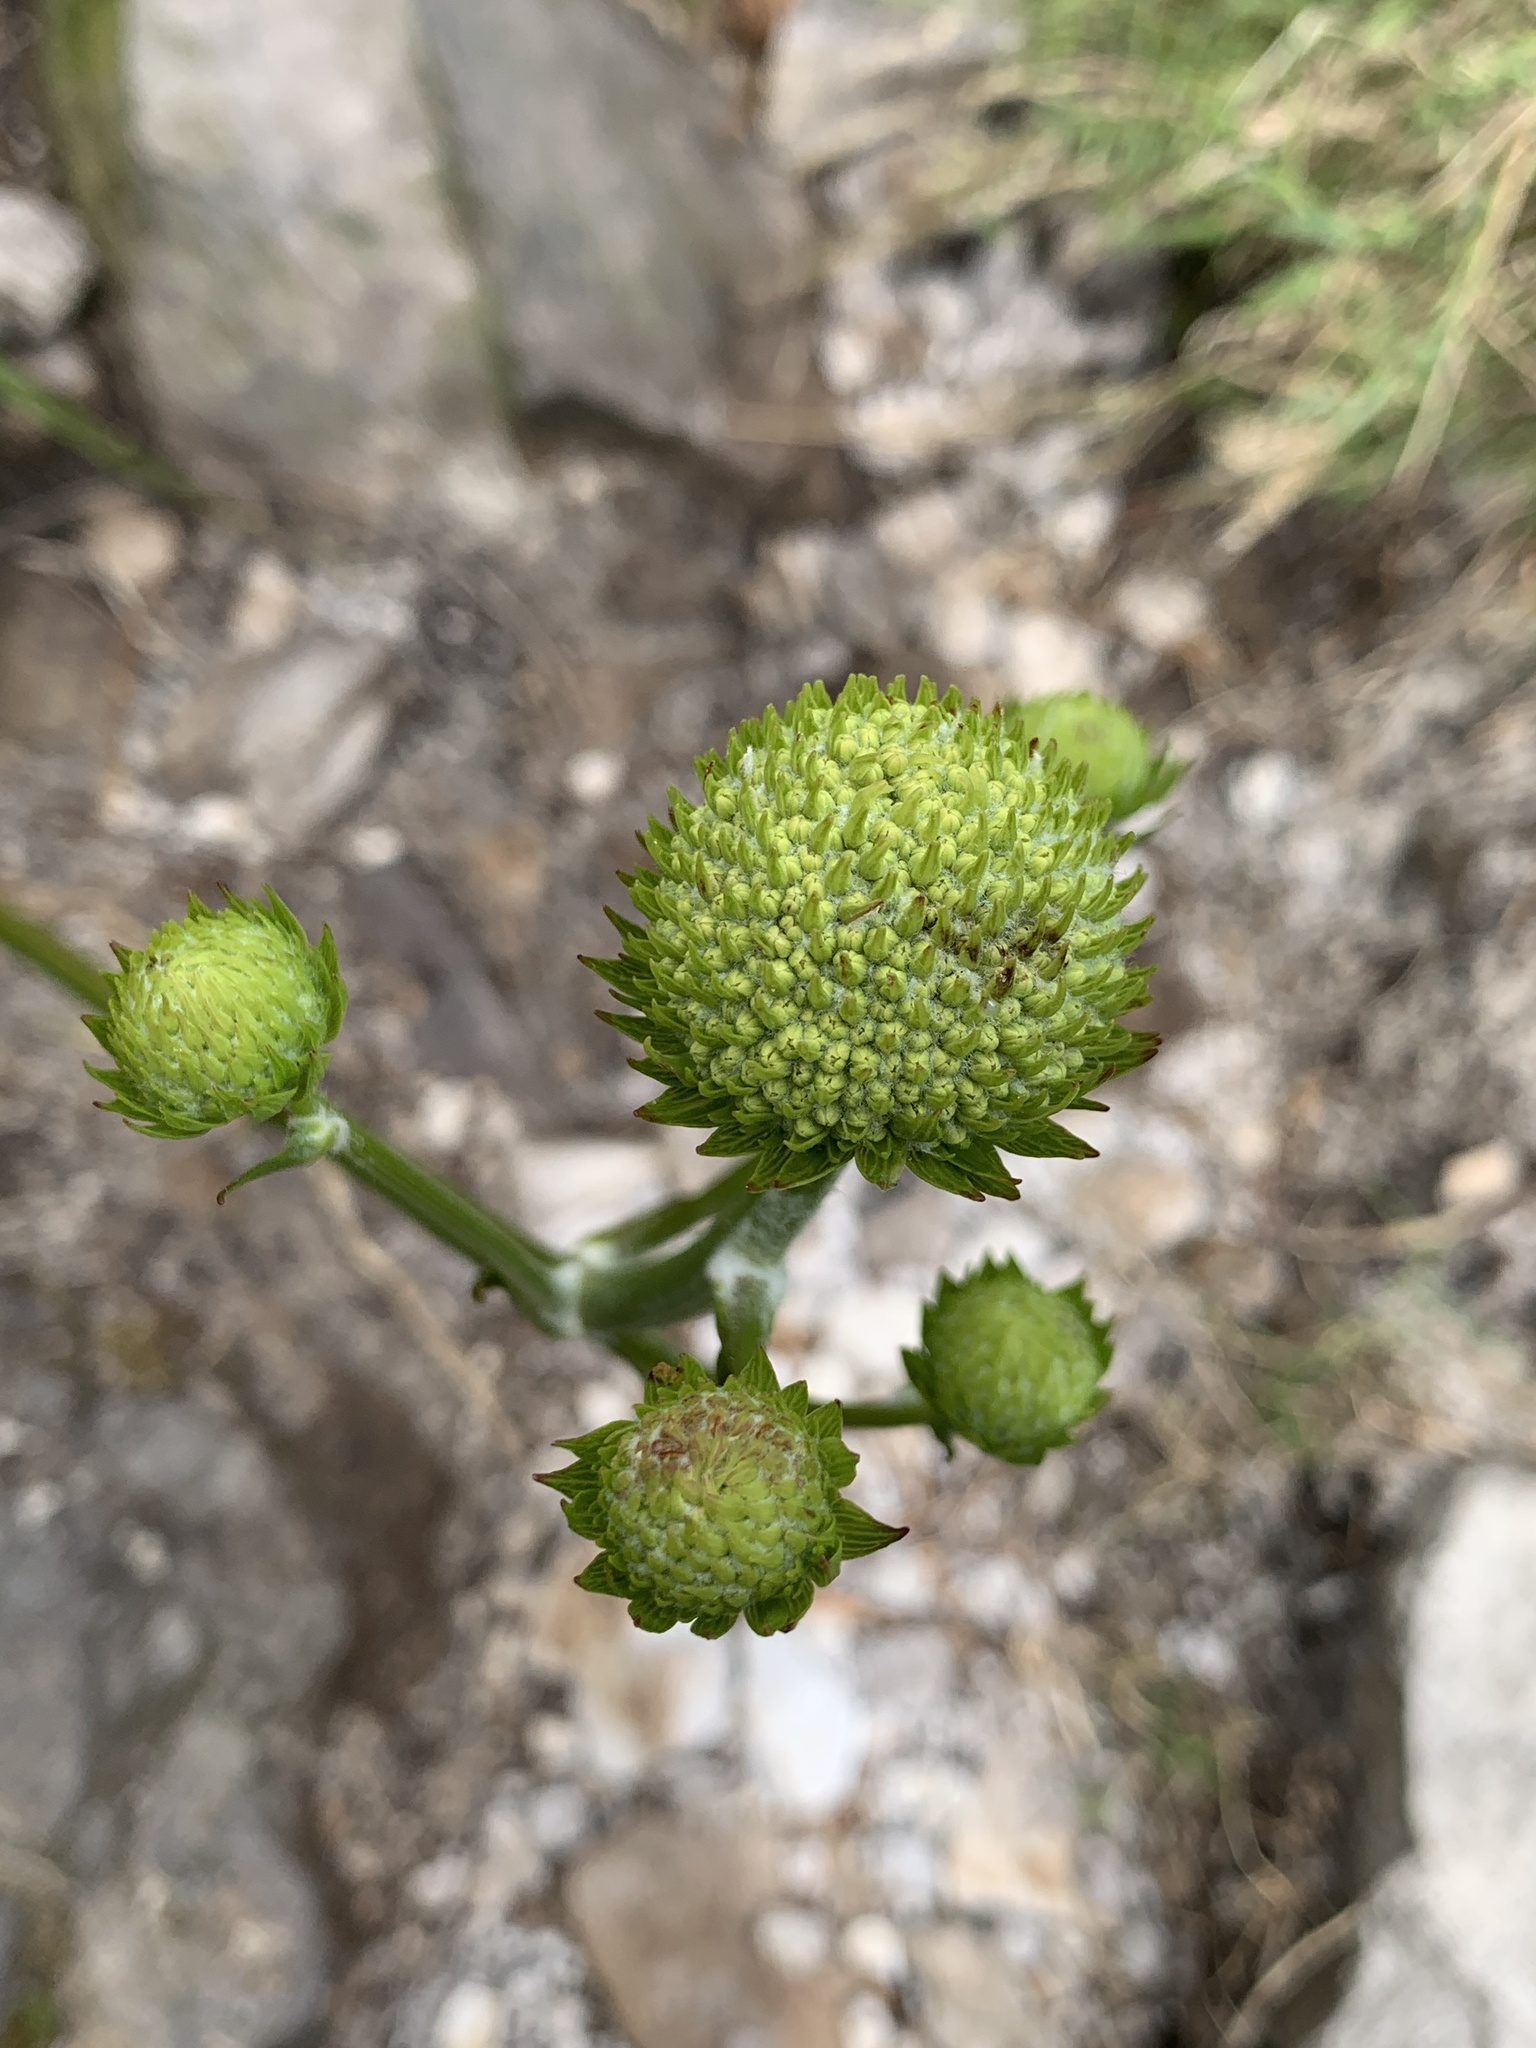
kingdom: Plantae
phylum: Tracheophyta
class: Magnoliopsida
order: Apiales
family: Apiaceae
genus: Hermas
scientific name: Hermas villosa
